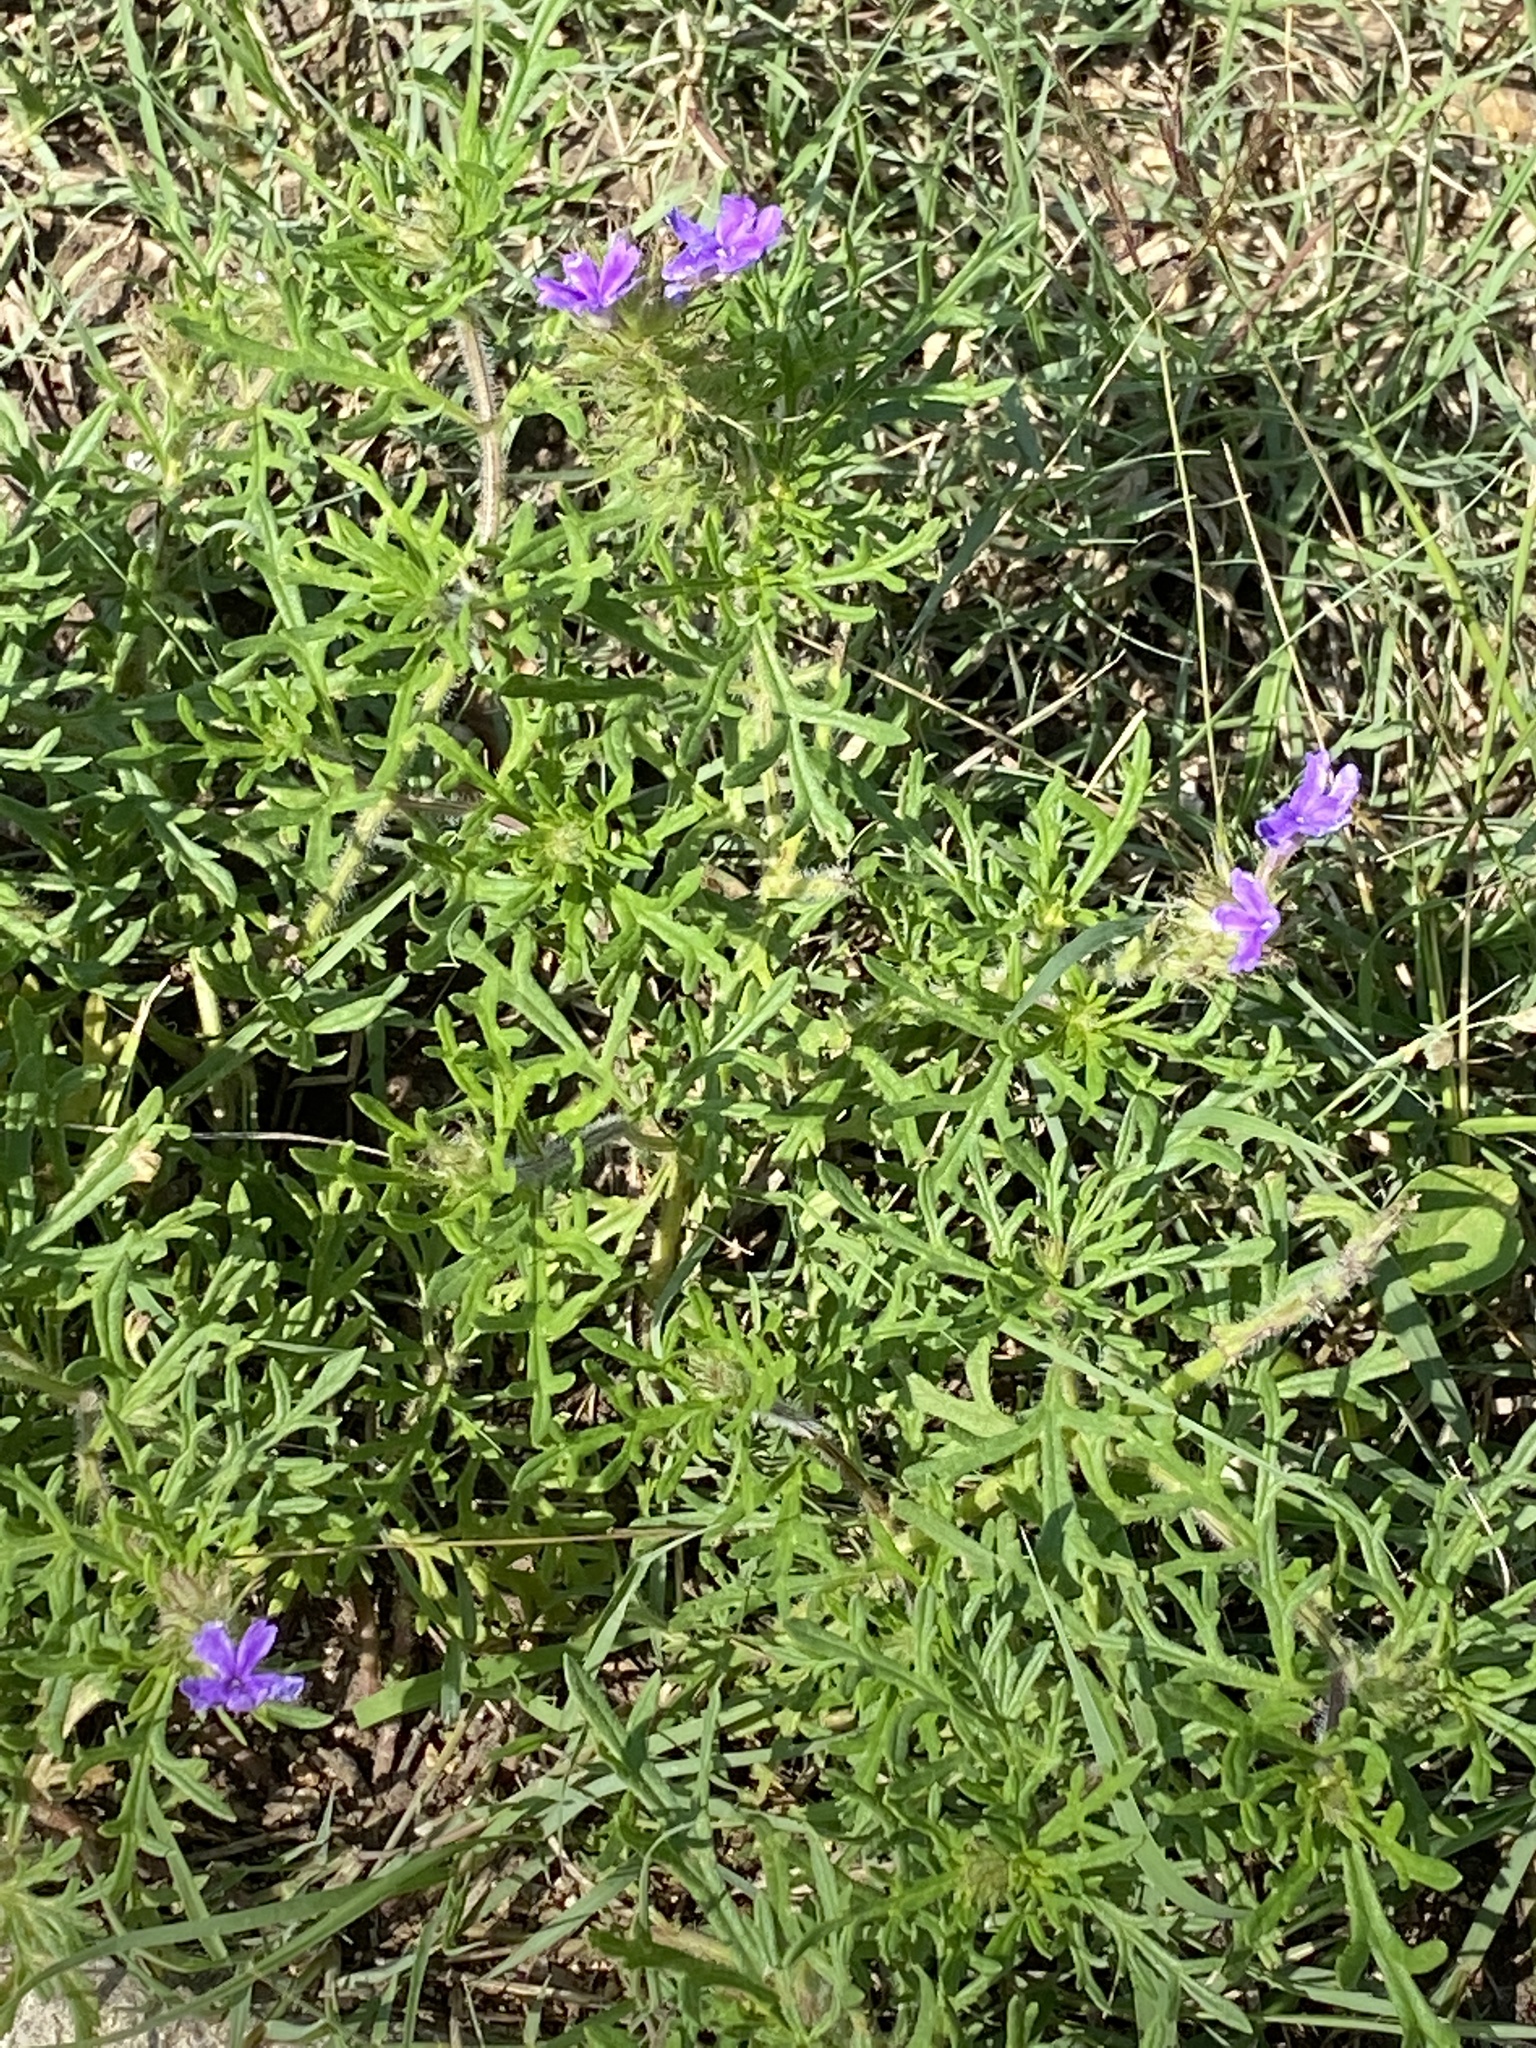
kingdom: Plantae
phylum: Tracheophyta
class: Magnoliopsida
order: Lamiales
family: Verbenaceae
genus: Verbena
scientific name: Verbena bipinnatifida
